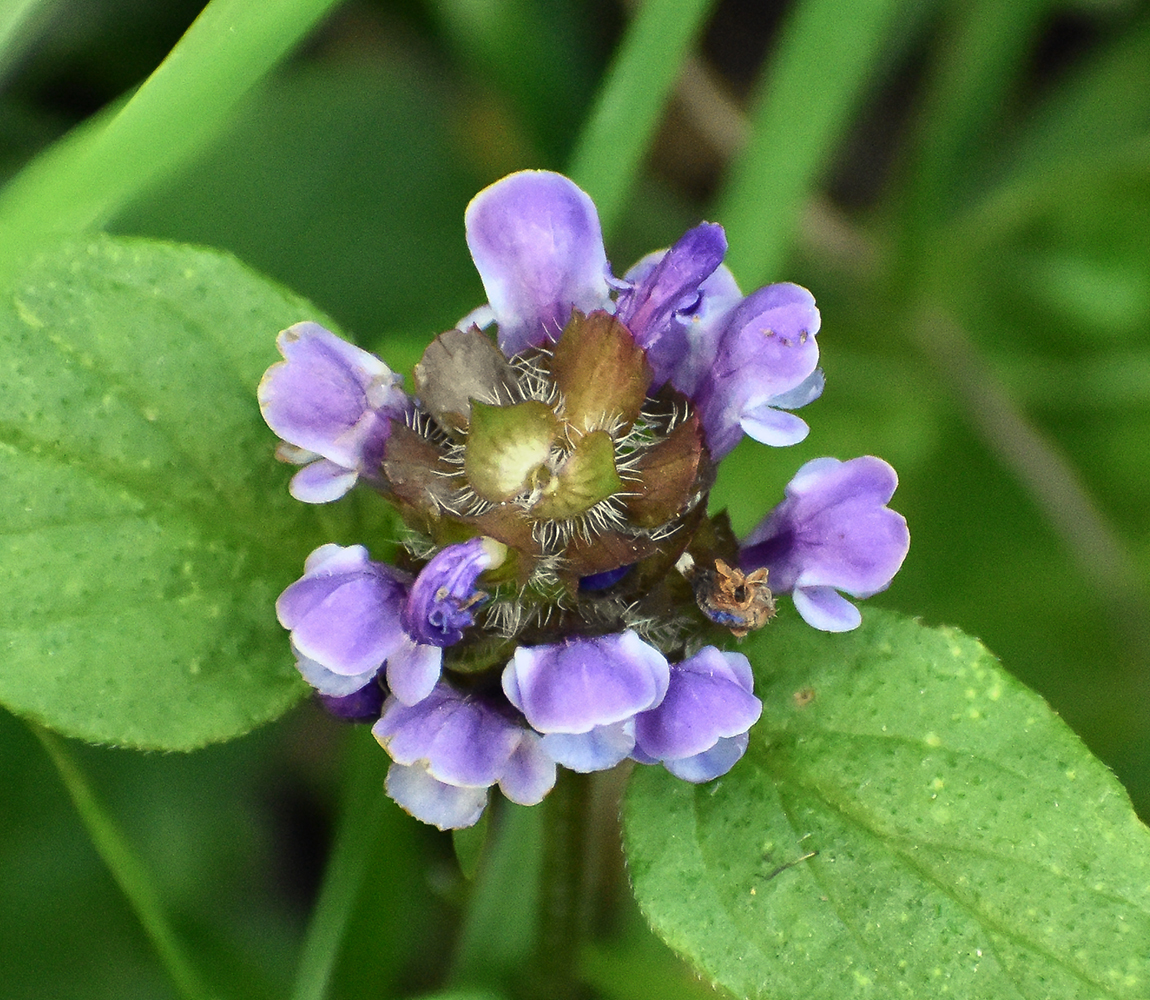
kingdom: Plantae
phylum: Tracheophyta
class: Magnoliopsida
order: Lamiales
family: Lamiaceae
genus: Prunella
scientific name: Prunella vulgaris
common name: Heal-all
